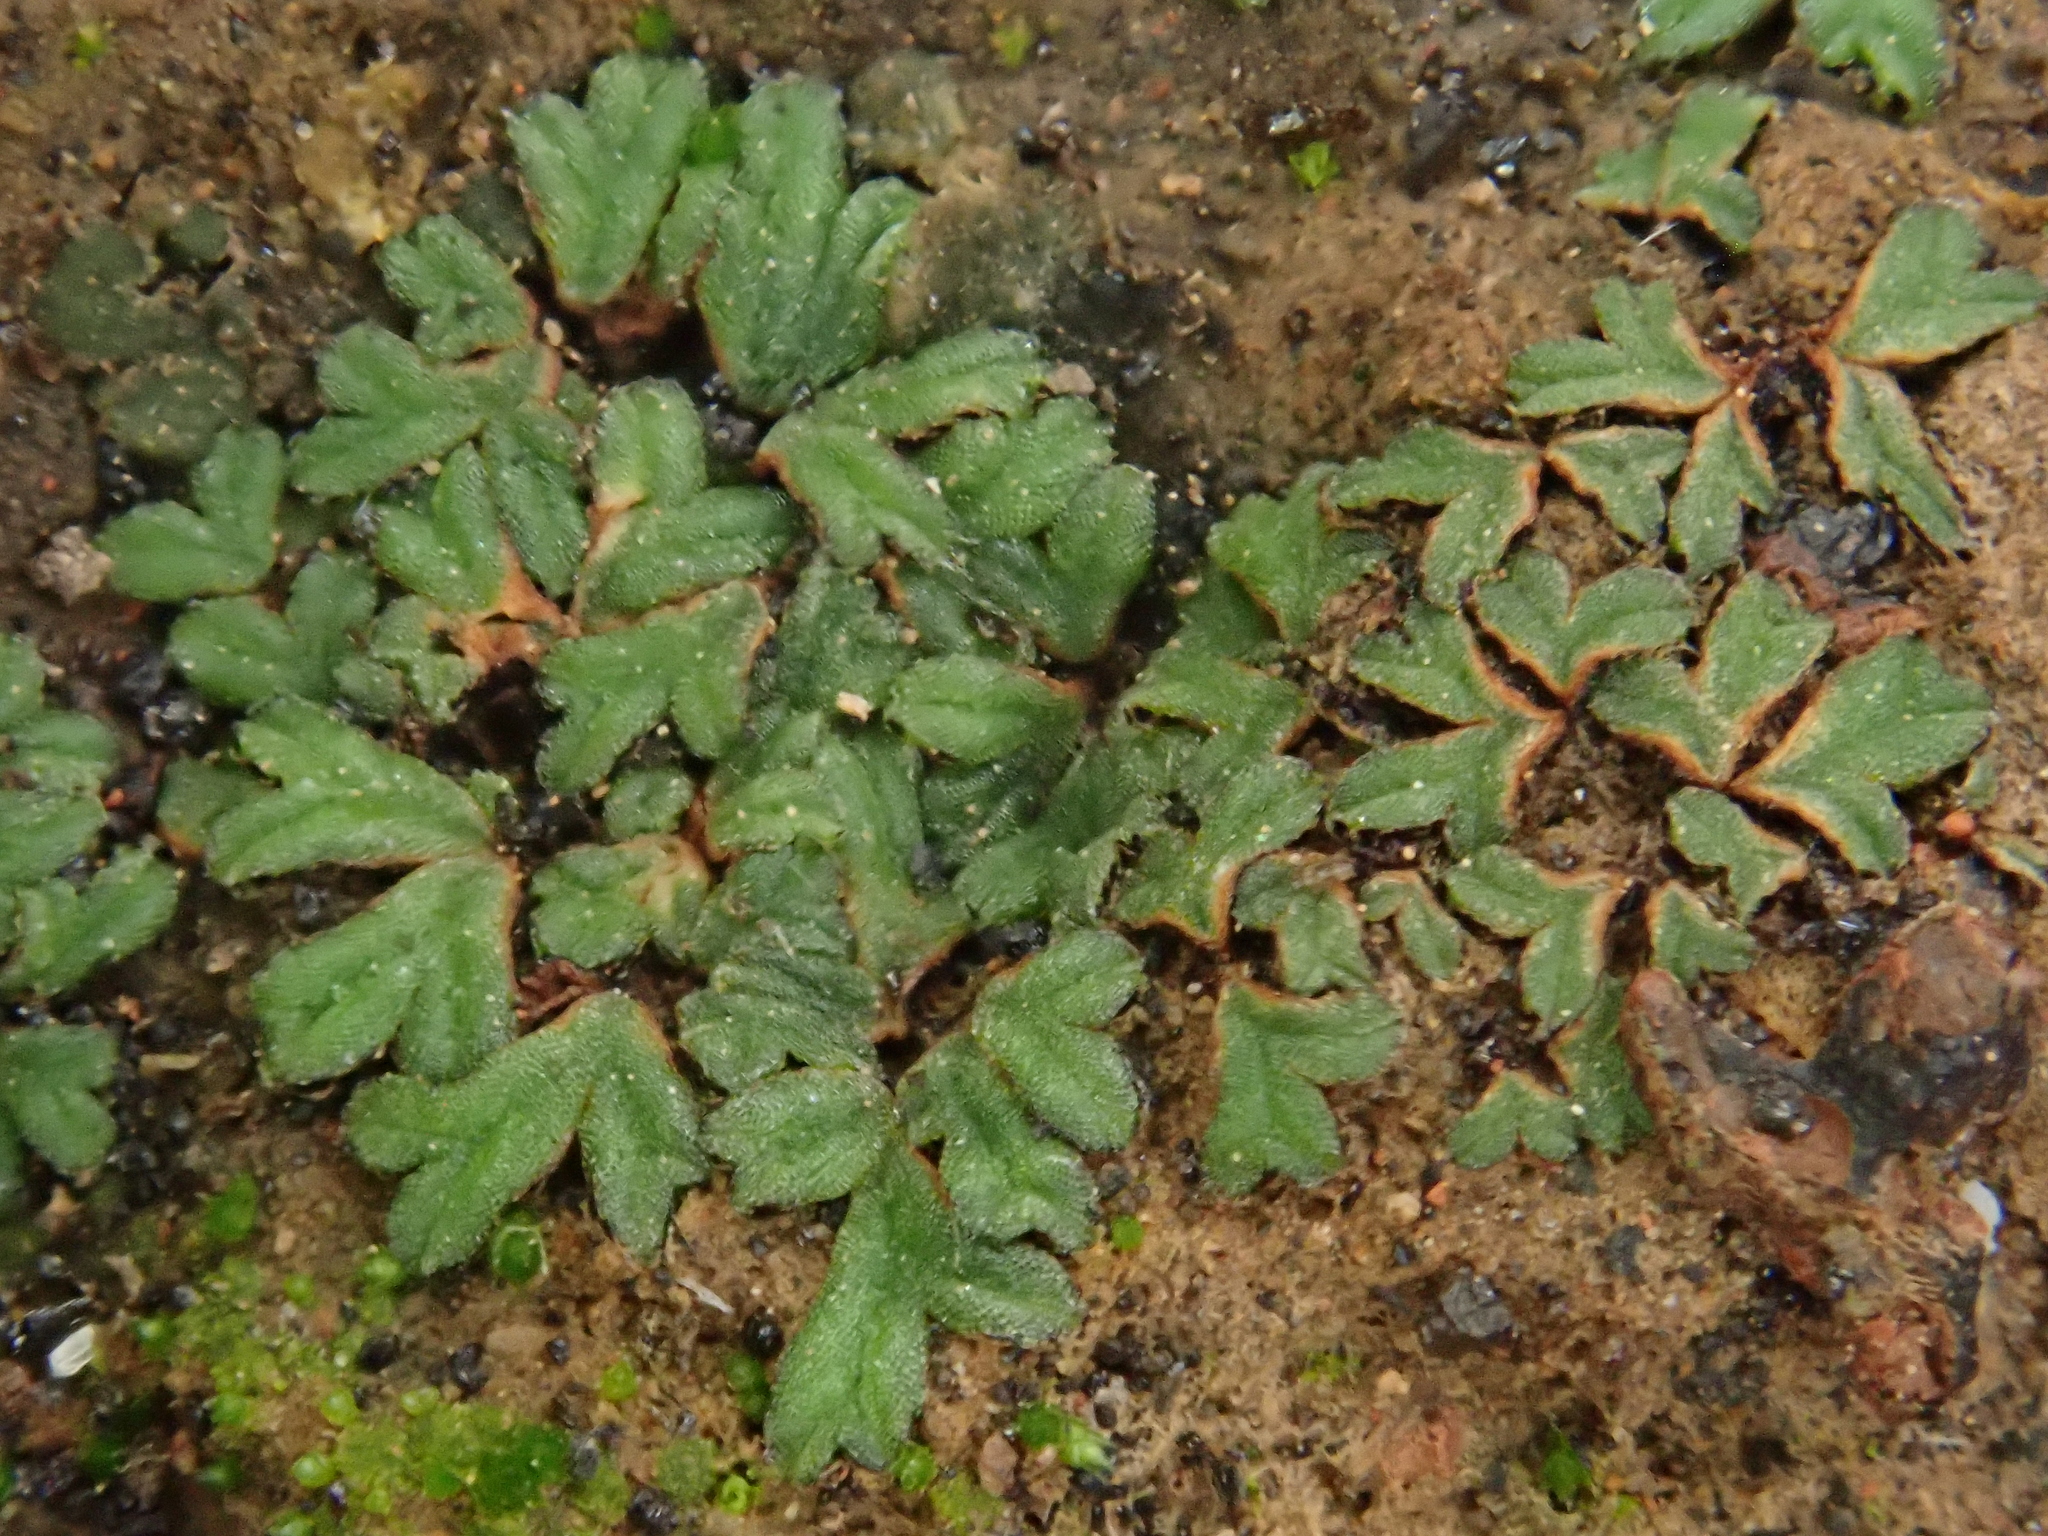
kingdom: Plantae
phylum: Marchantiophyta
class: Marchantiopsida
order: Marchantiales
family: Ricciaceae
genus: Riccia
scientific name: Riccia nigrella
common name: Black crystalwort
